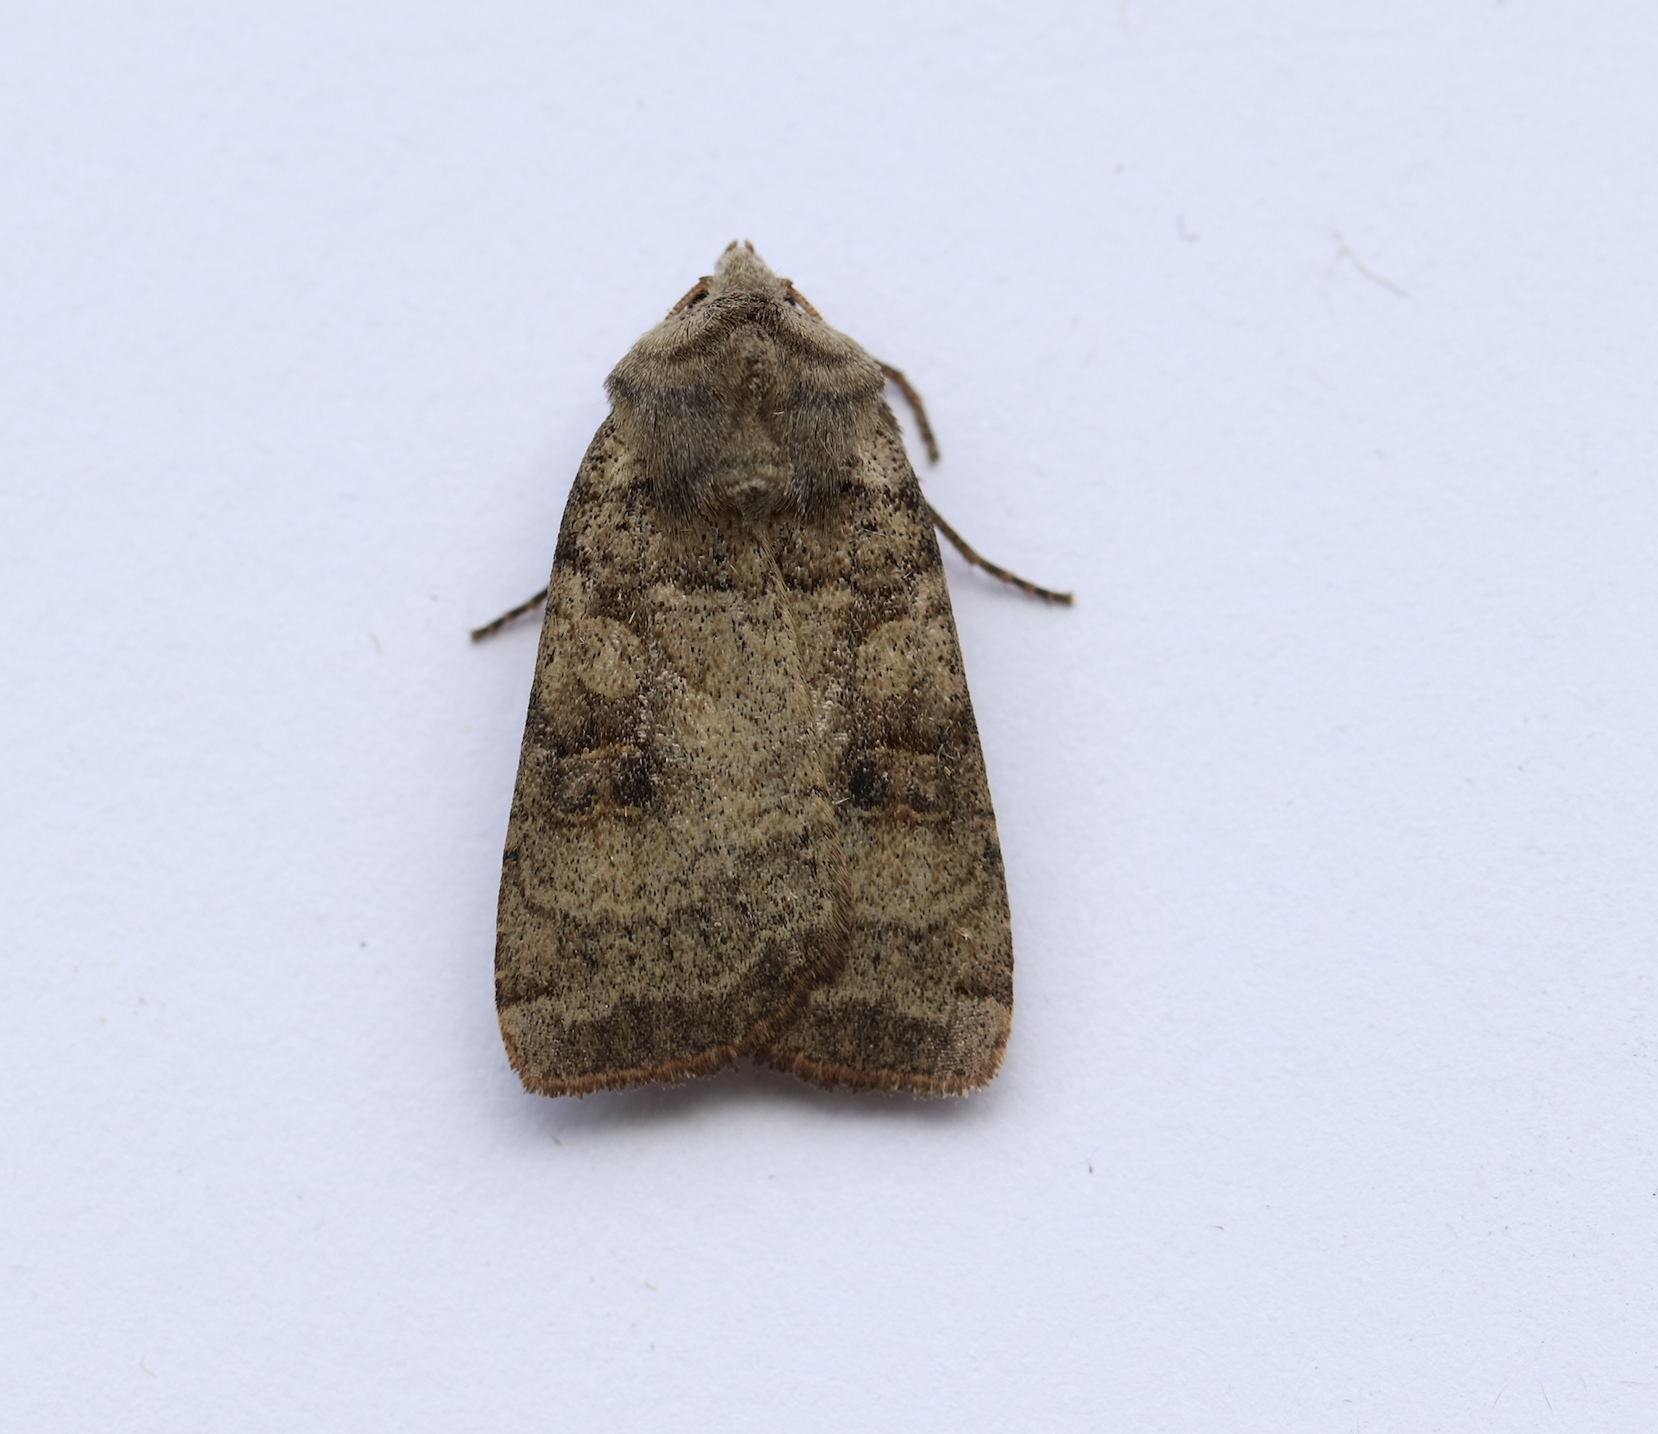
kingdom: Animalia
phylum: Arthropoda
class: Insecta
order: Lepidoptera
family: Noctuidae
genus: Xestia
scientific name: Xestia smithii
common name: Smith's dart
